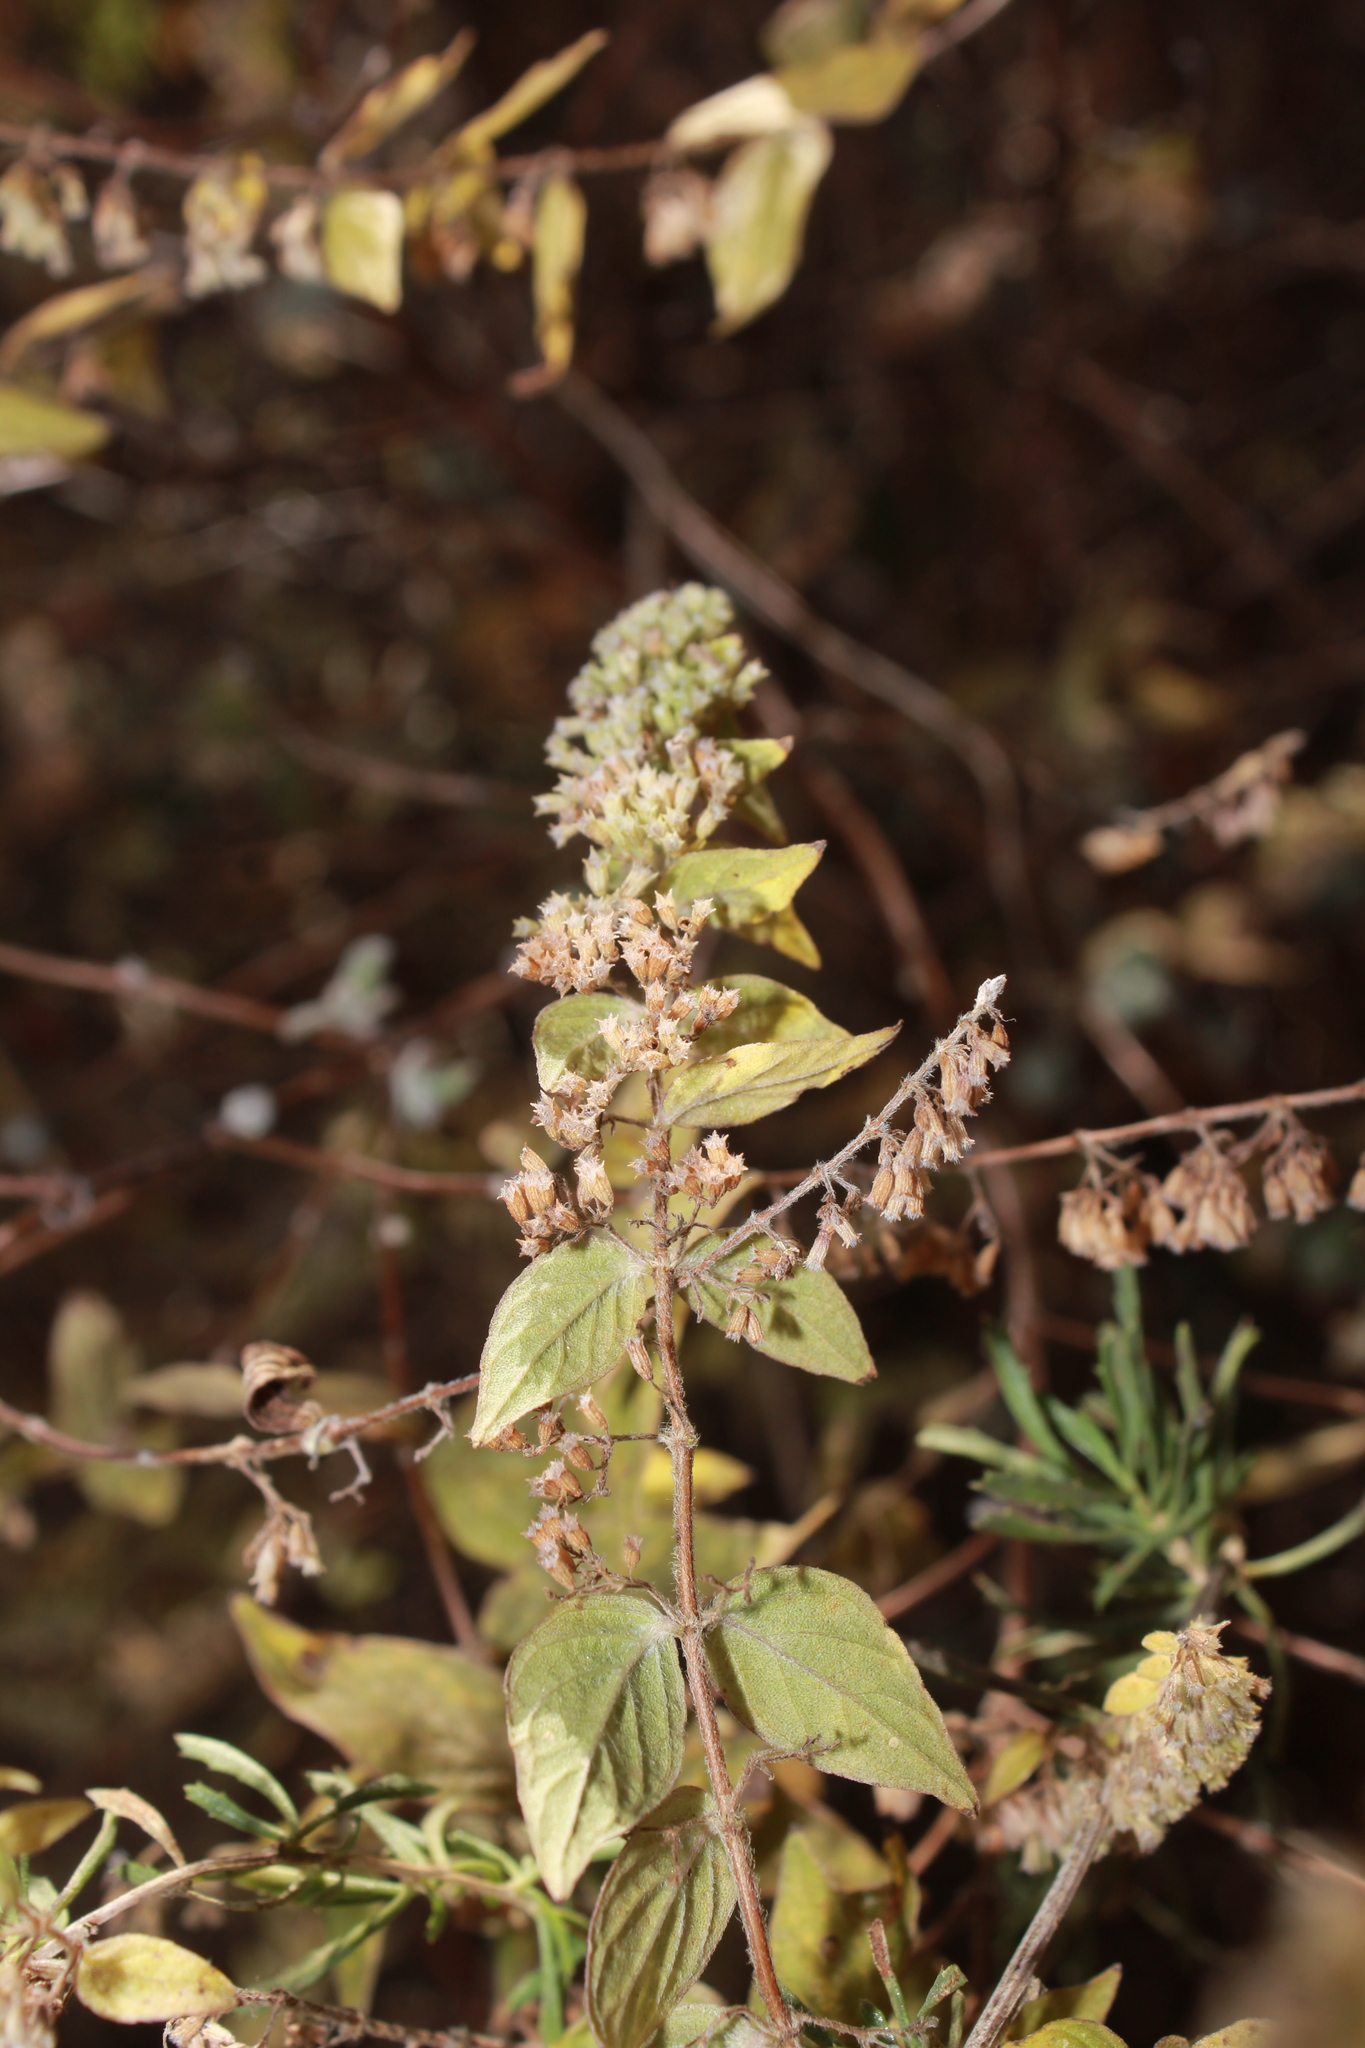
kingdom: Plantae
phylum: Tracheophyta
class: Magnoliopsida
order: Lamiales
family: Lamiaceae
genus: Cunila
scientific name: Cunila polyantha
